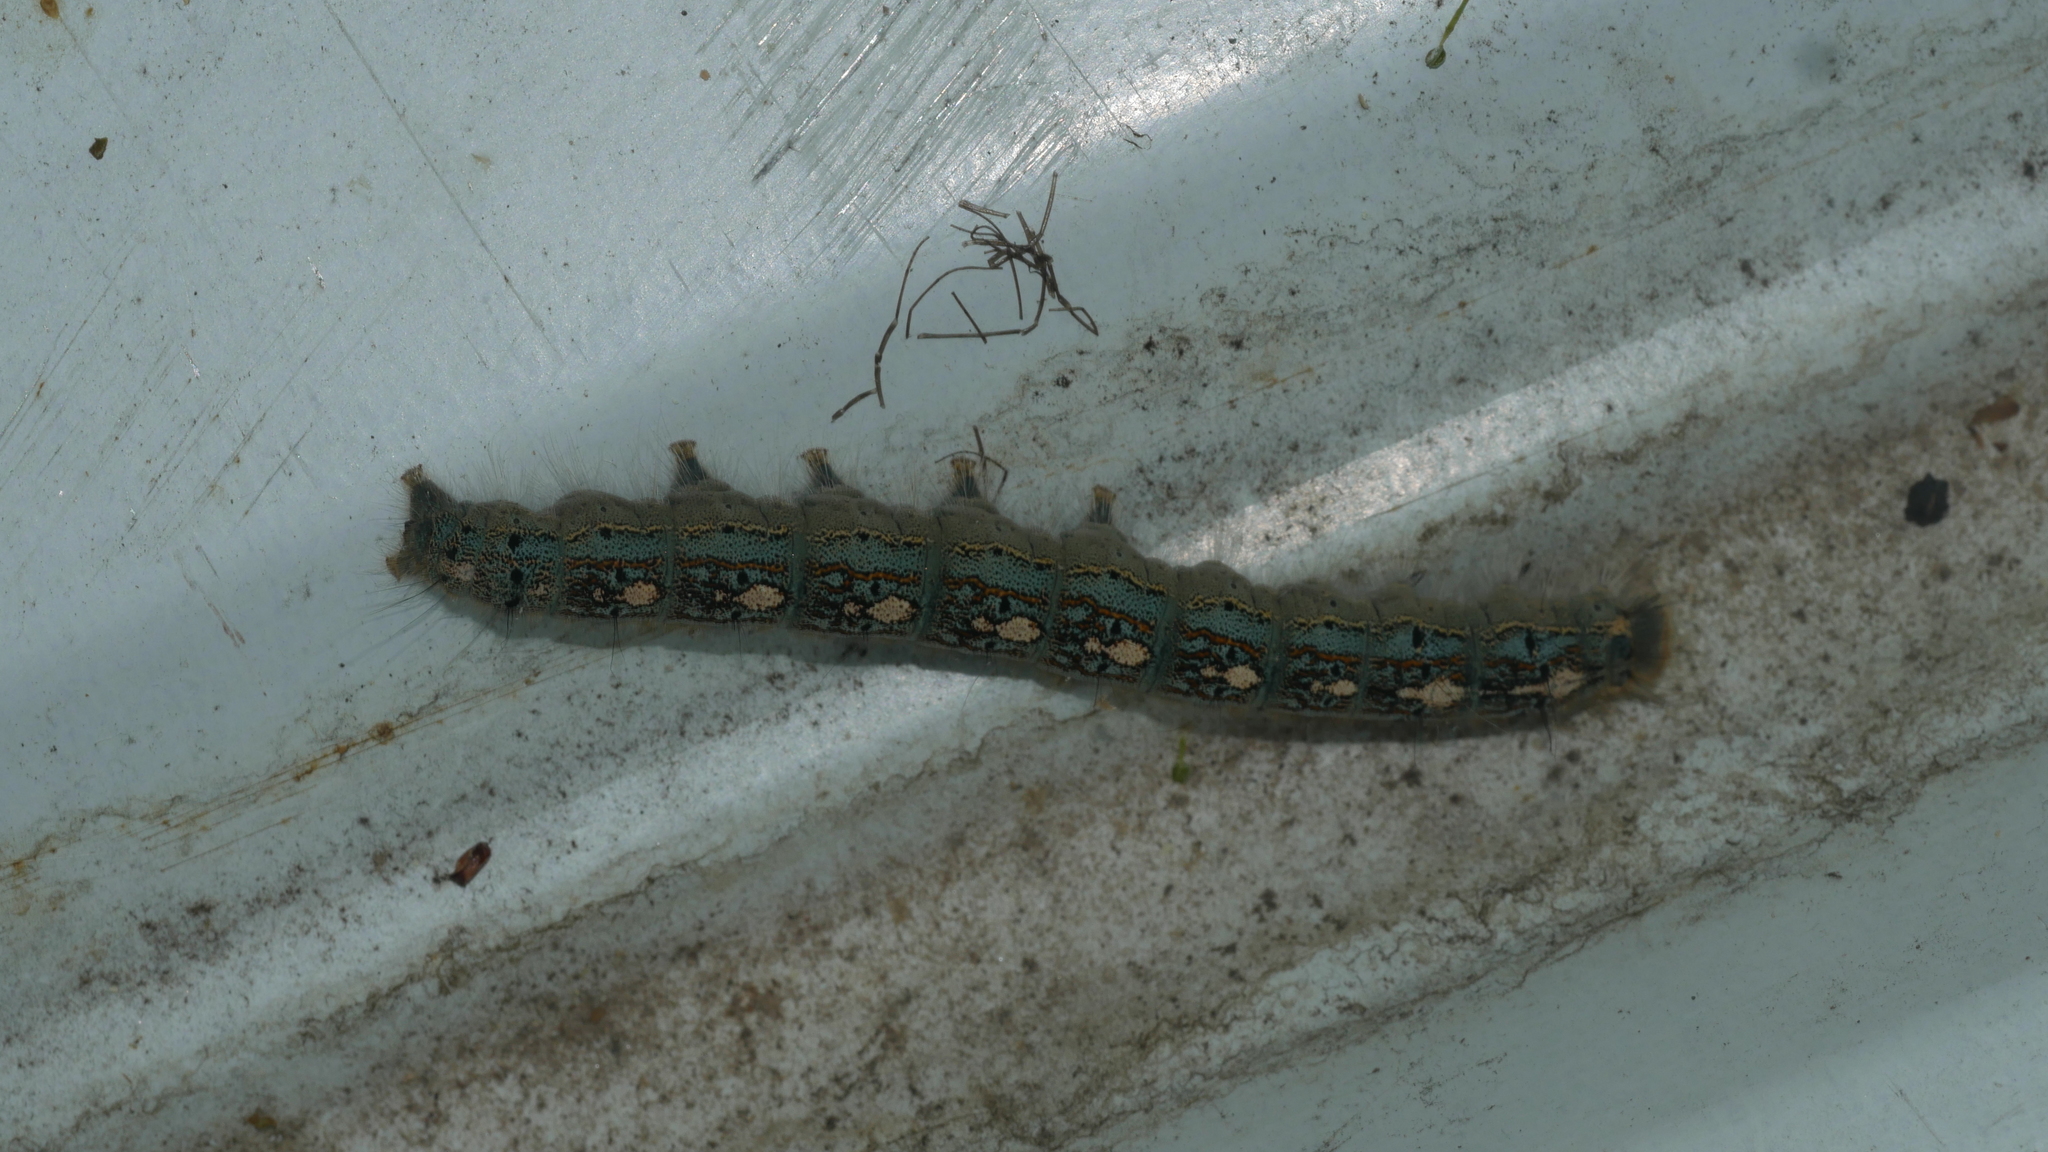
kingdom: Animalia
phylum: Arthropoda
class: Insecta
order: Lepidoptera
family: Lasiocampidae
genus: Malacosoma
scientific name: Malacosoma disstria
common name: Forest tent caterpillar
